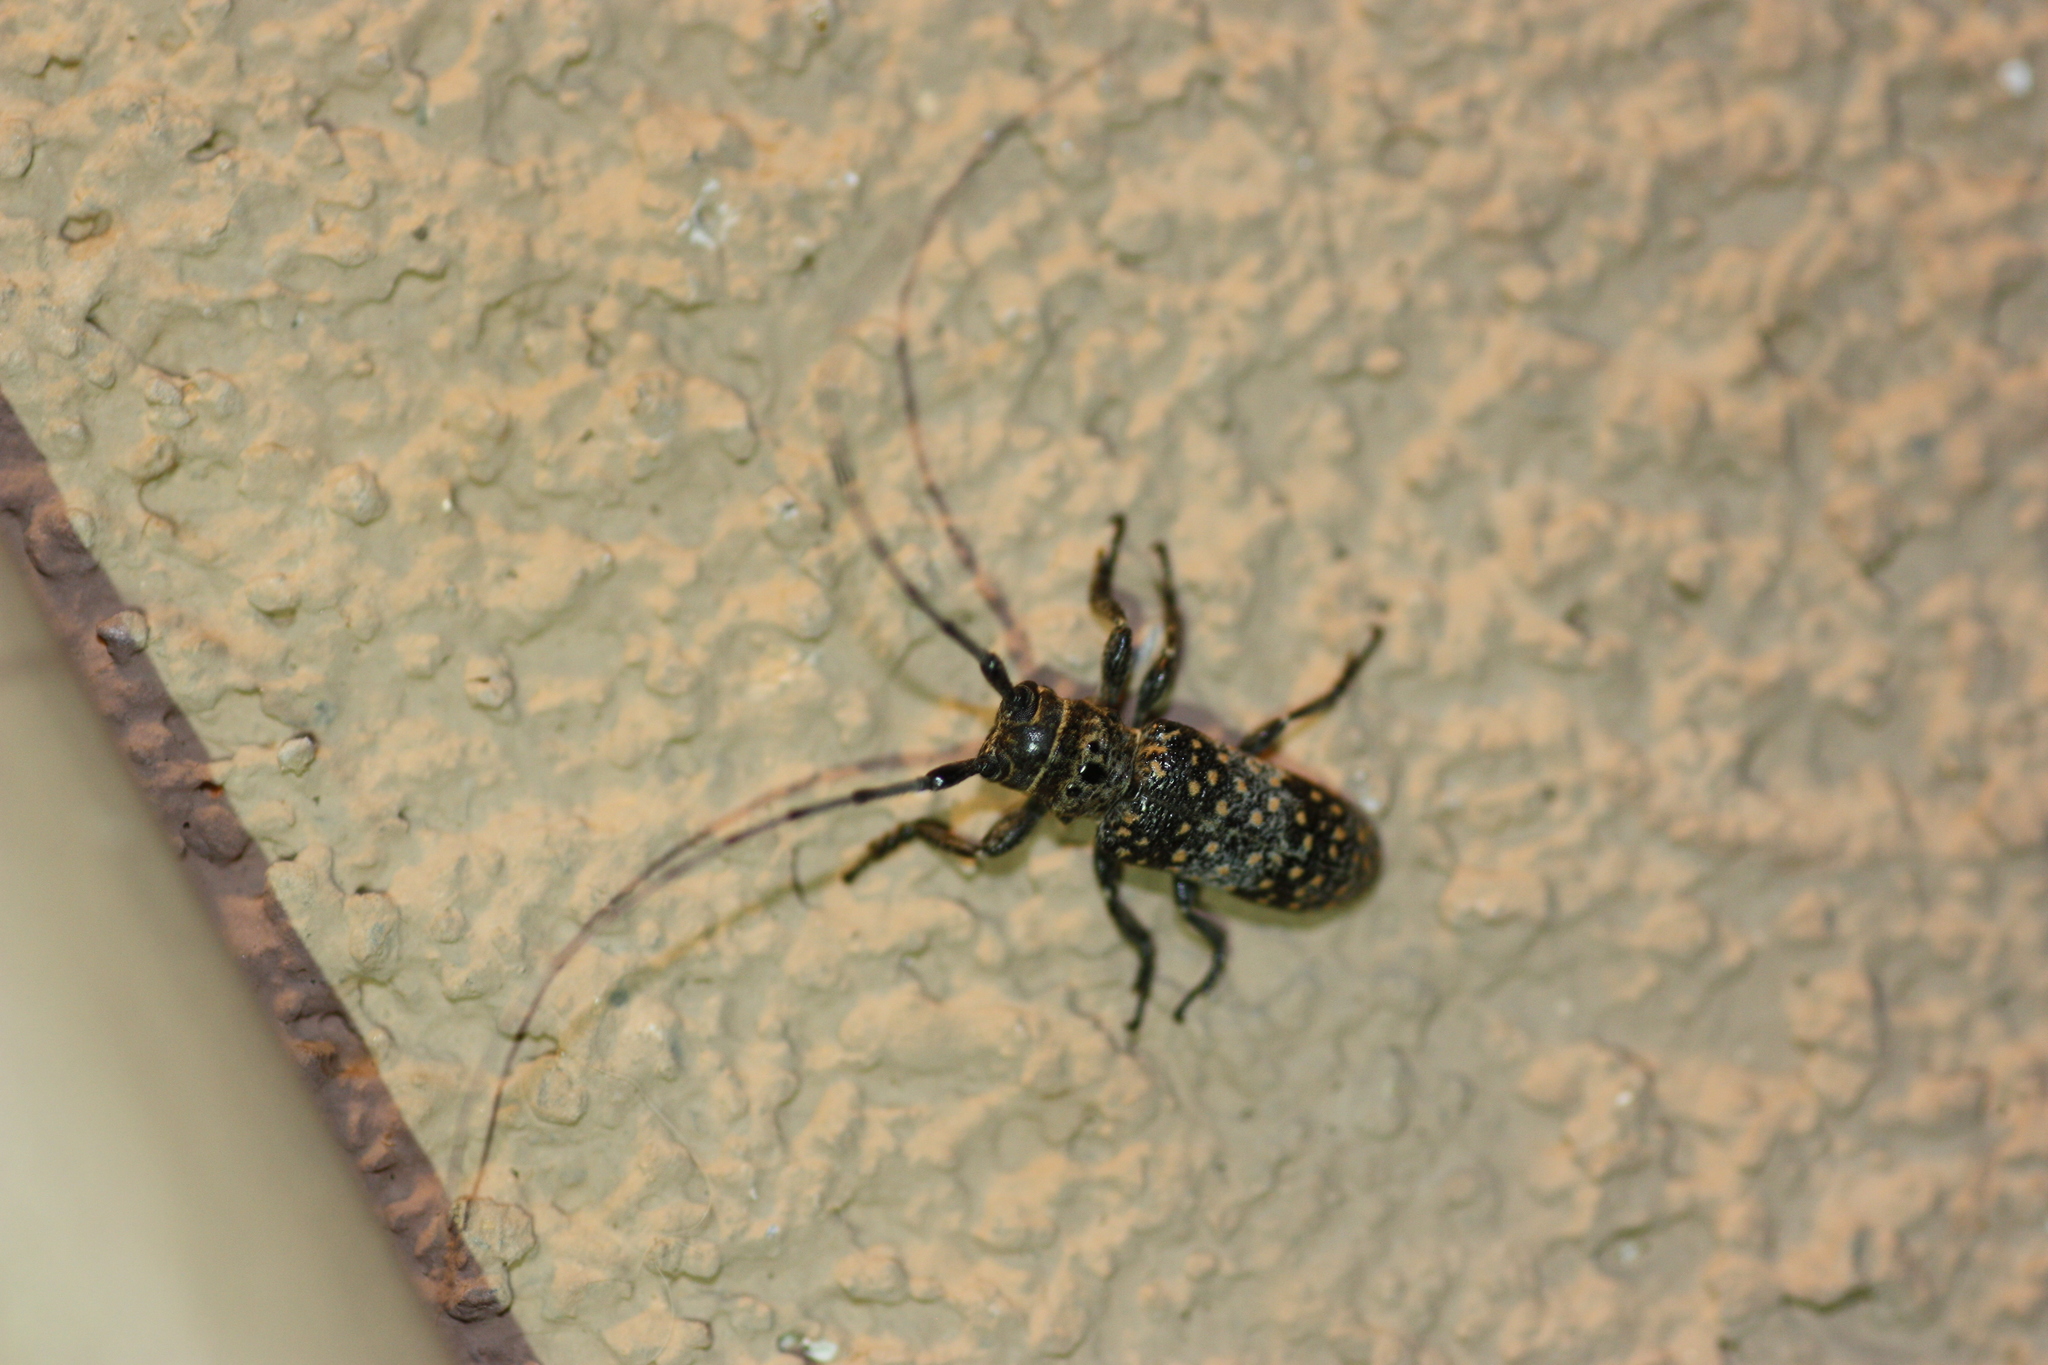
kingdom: Animalia
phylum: Arthropoda
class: Insecta
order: Coleoptera
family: Cerambycidae
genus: Oncideres
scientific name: Oncideres rhodosticta
